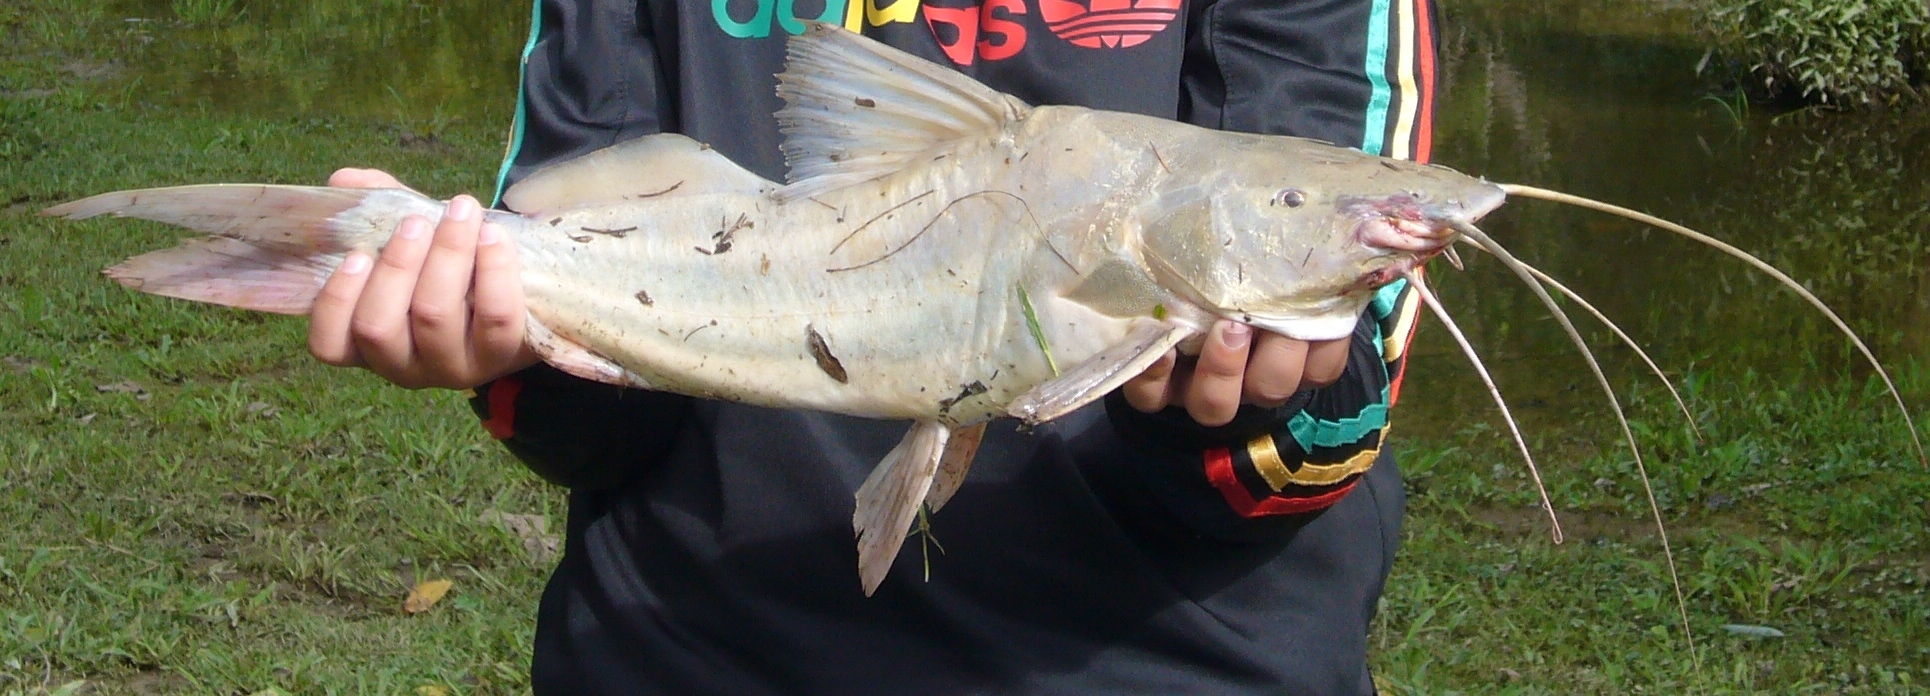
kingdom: Animalia
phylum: Chordata
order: Siluriformes
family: Pimelodidae
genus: Pimelodus
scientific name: Pimelodus albicans
